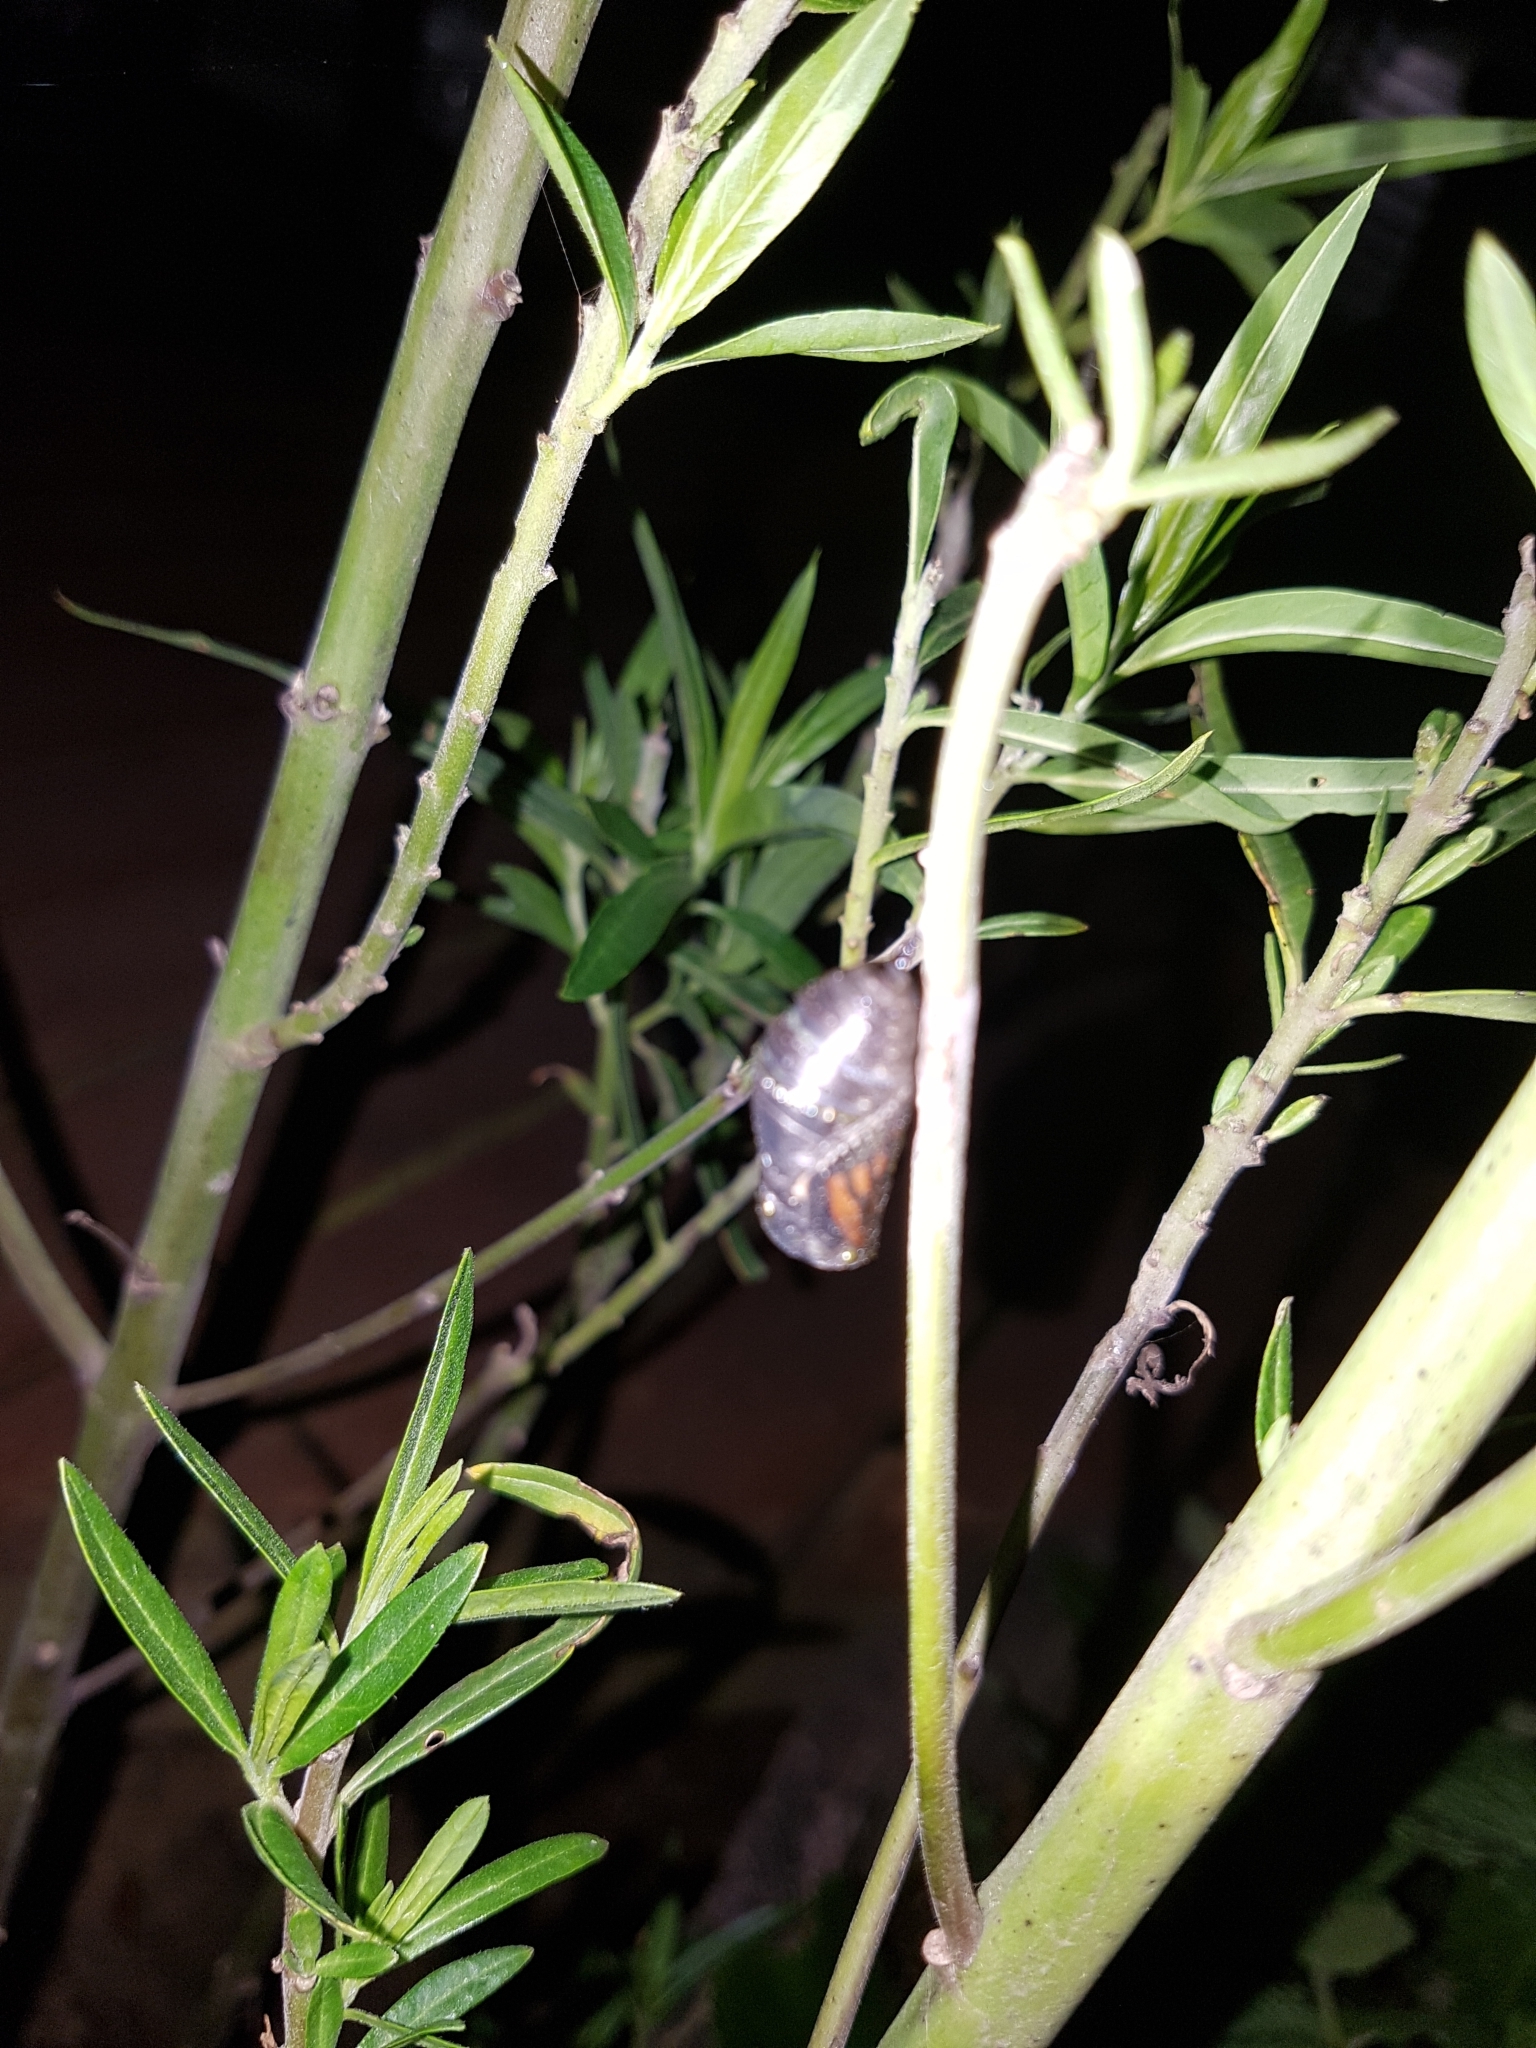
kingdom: Animalia
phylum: Arthropoda
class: Insecta
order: Lepidoptera
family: Nymphalidae
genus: Danaus
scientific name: Danaus plexippus
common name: Monarch
